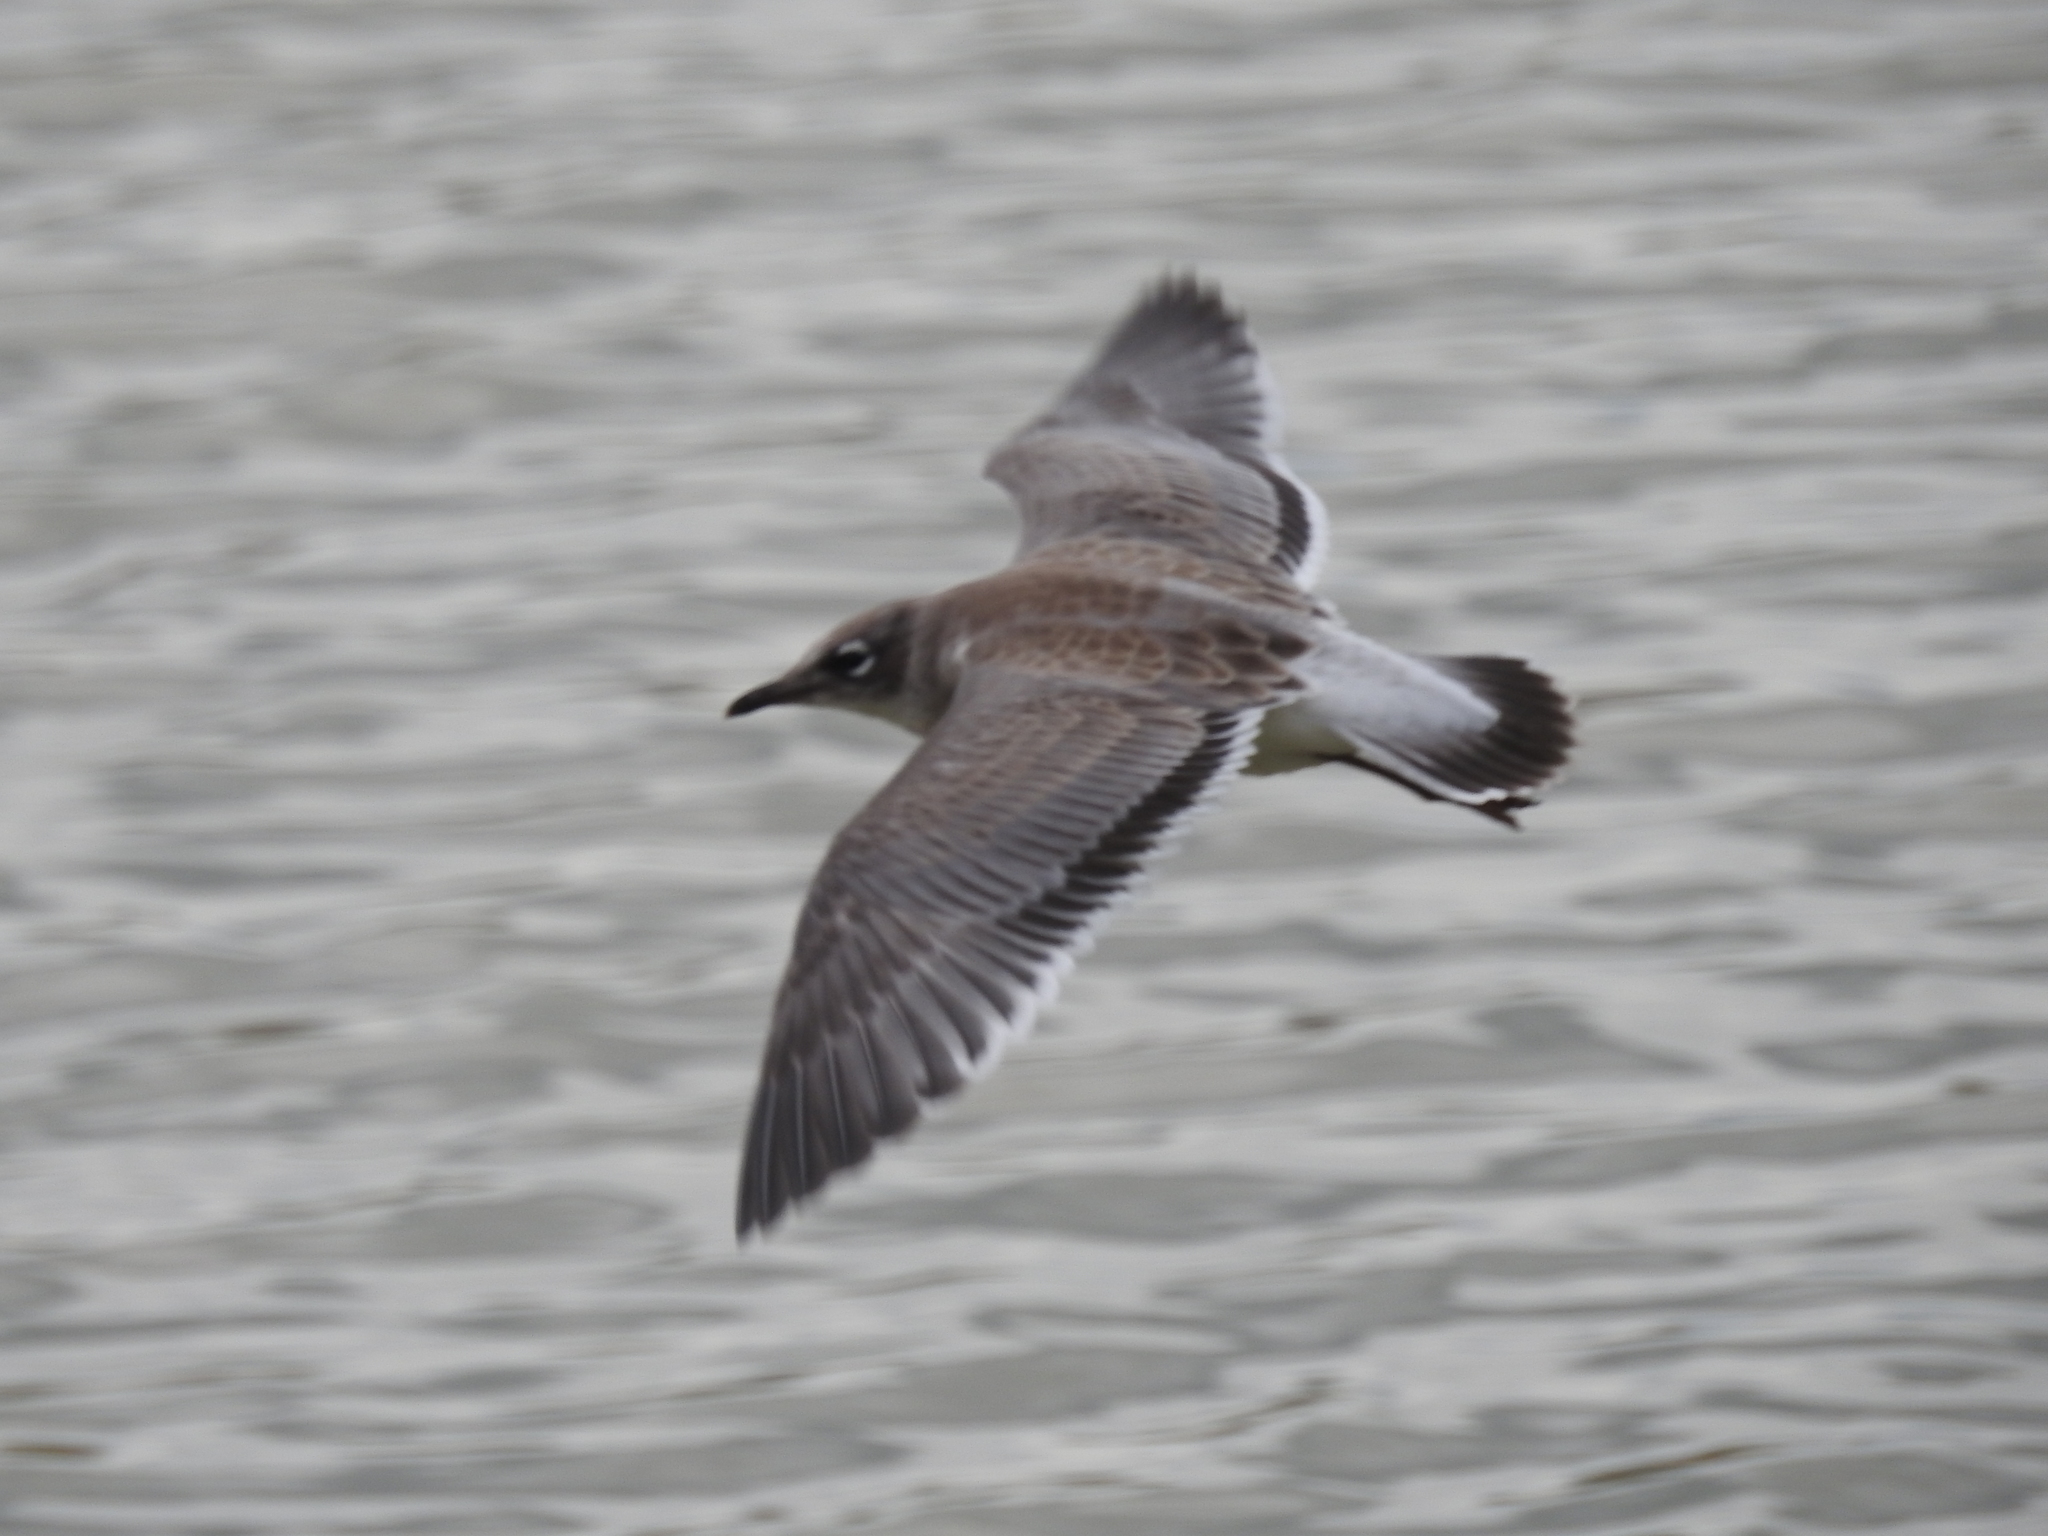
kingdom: Animalia
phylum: Chordata
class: Aves
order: Charadriiformes
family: Laridae
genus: Leucophaeus
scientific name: Leucophaeus pipixcan
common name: Franklin's gull
